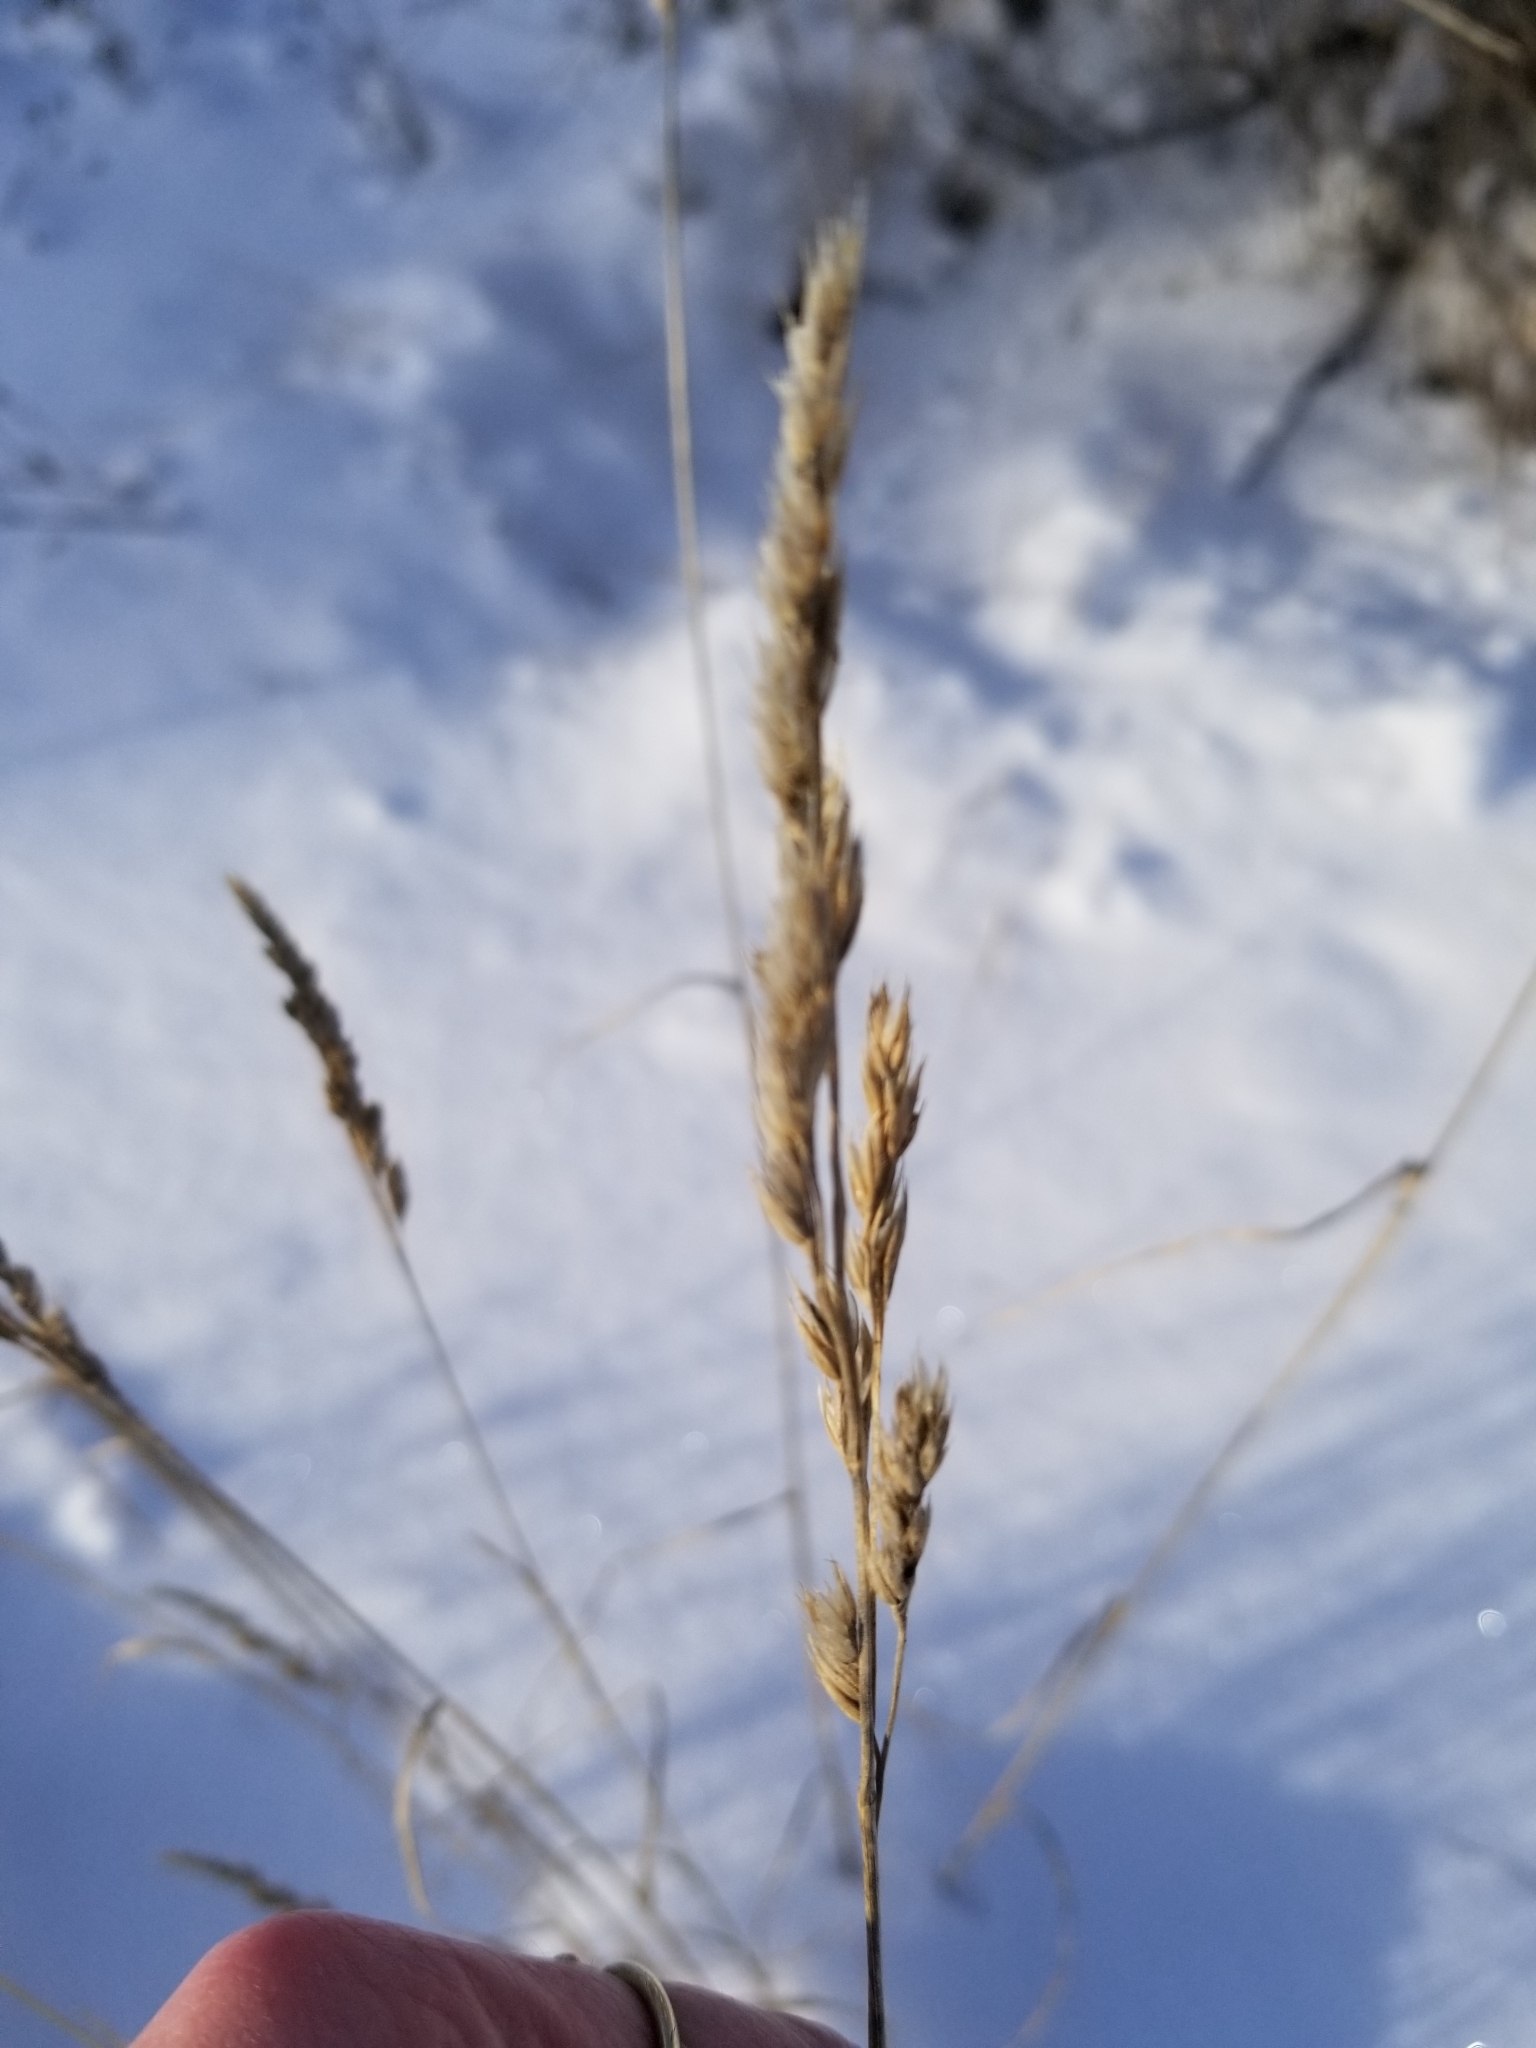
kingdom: Plantae
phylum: Tracheophyta
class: Liliopsida
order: Poales
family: Poaceae
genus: Dactylis
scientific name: Dactylis glomerata
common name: Orchardgrass
